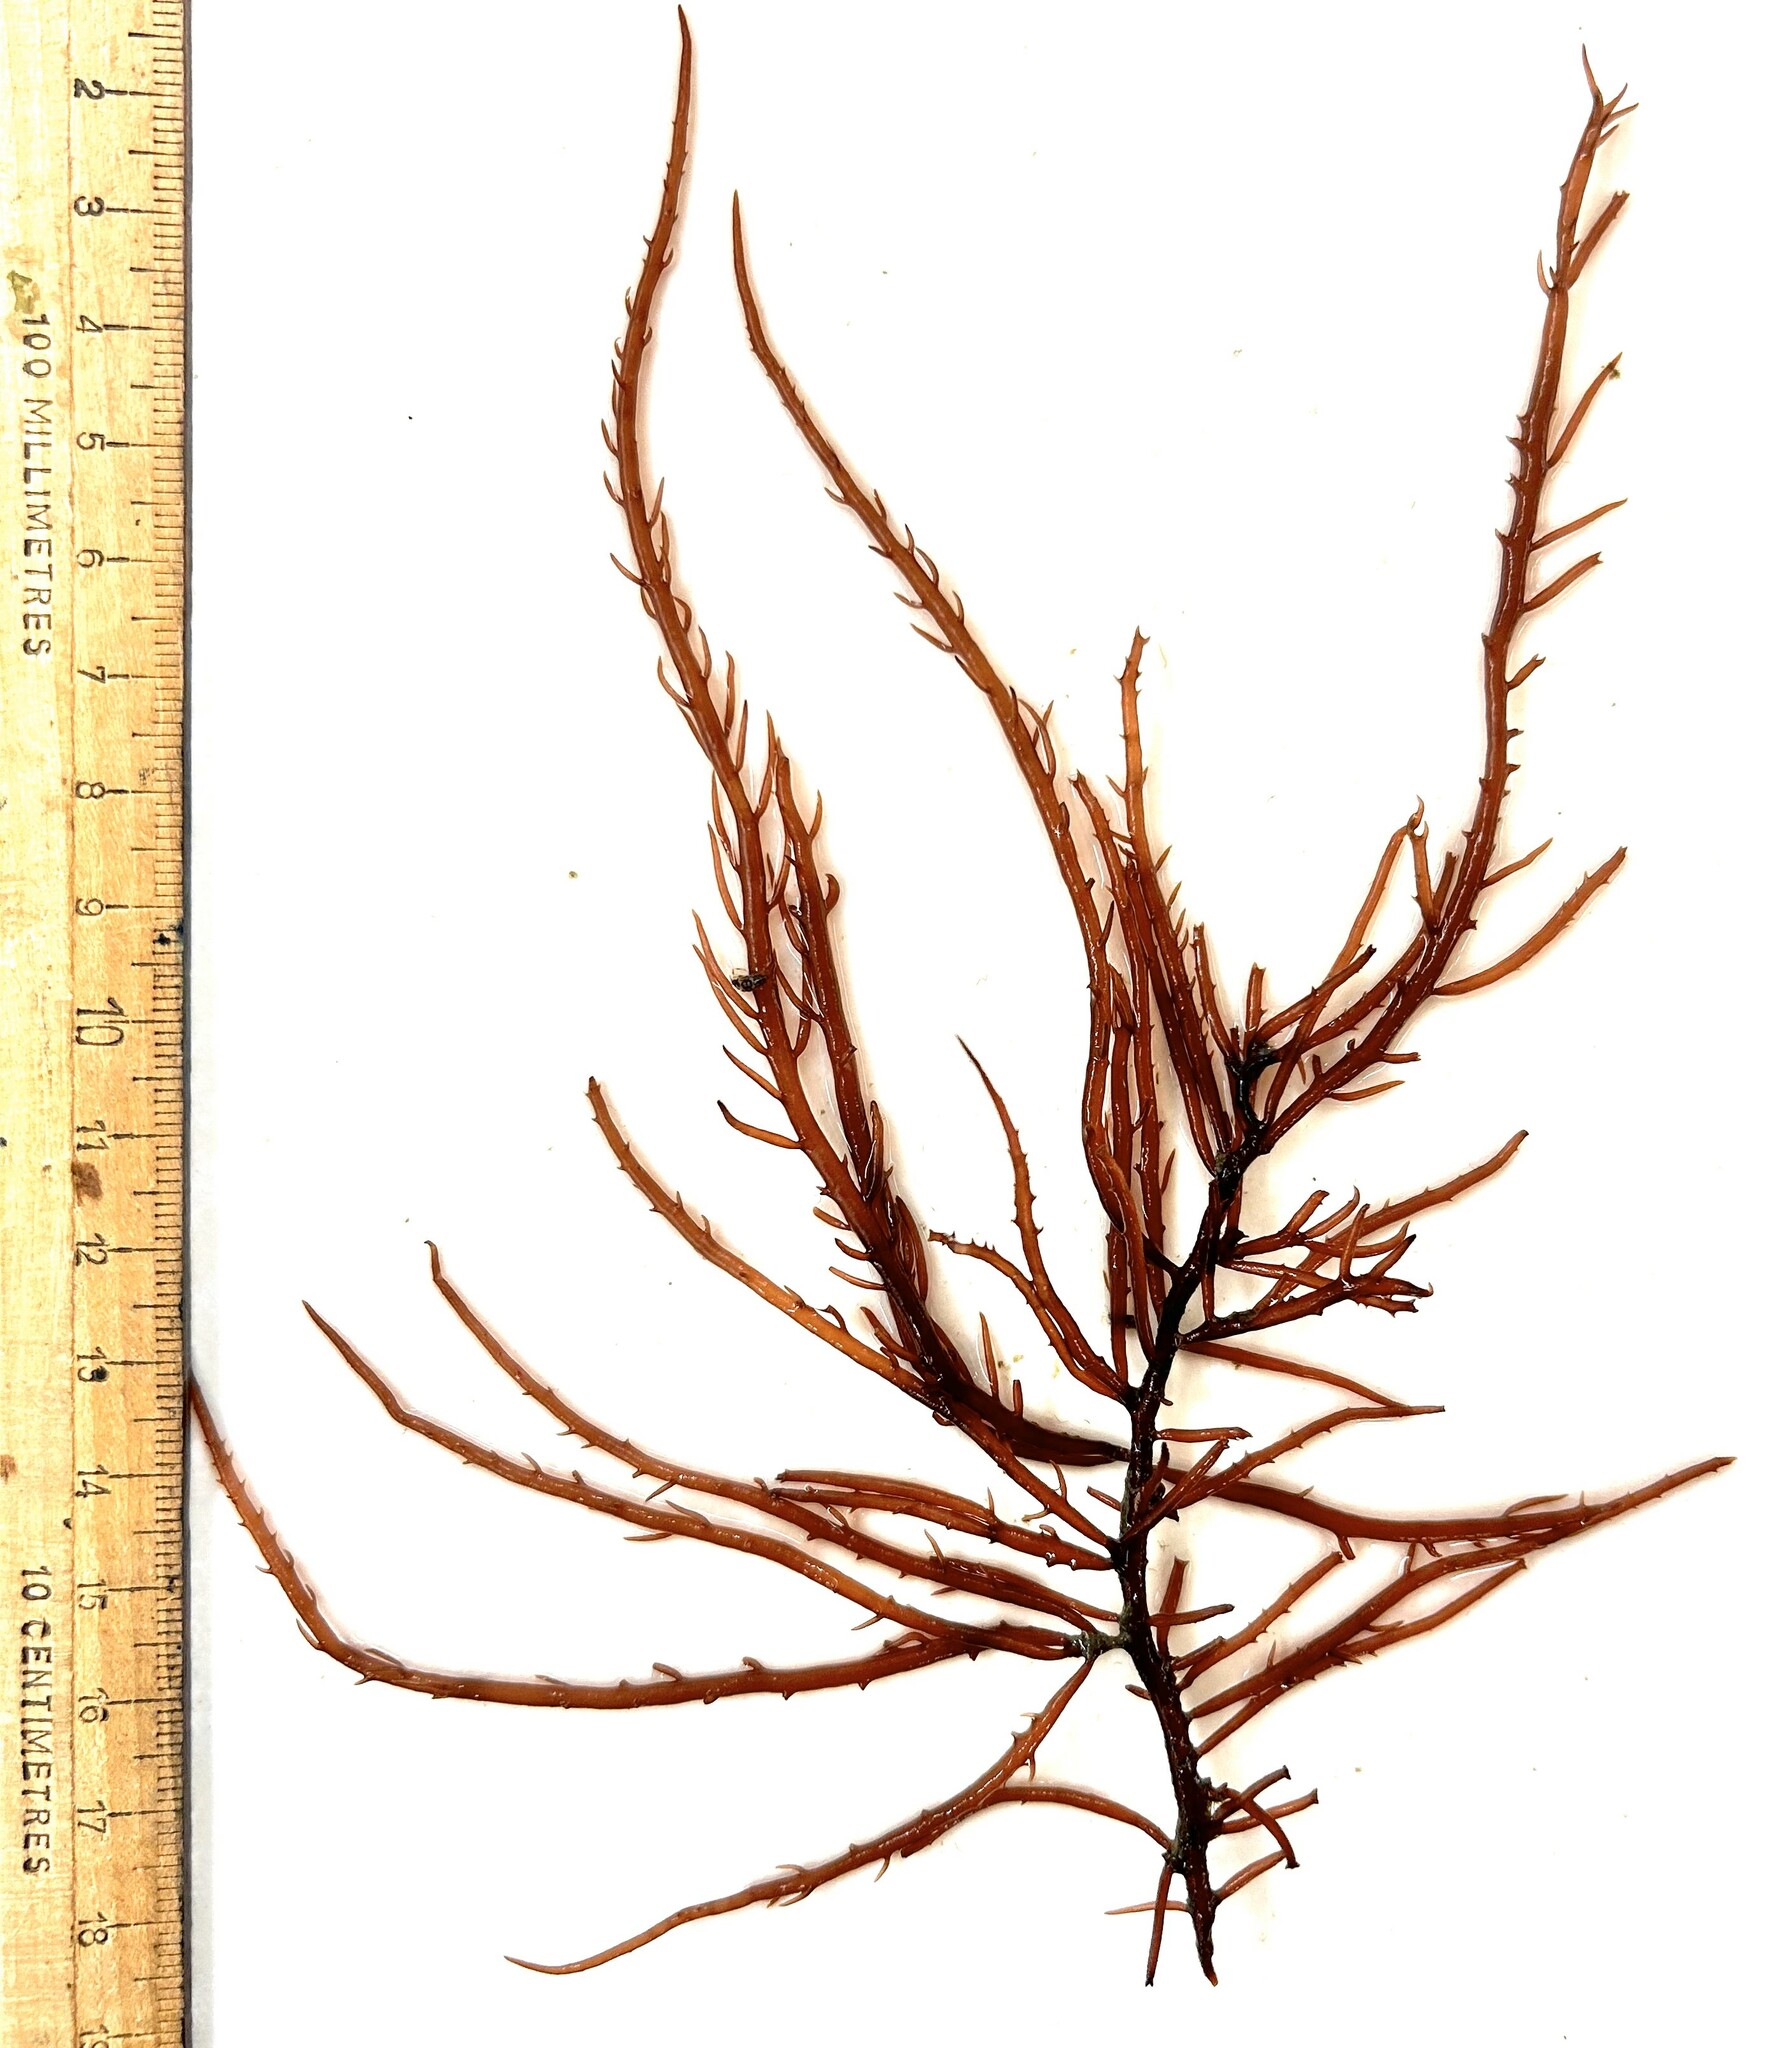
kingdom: Plantae
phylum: Rhodophyta
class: Florideophyceae
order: Gigartinales
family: Solieriaceae
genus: Sarcodiotheca
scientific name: Sarcodiotheca gaudichaudii
